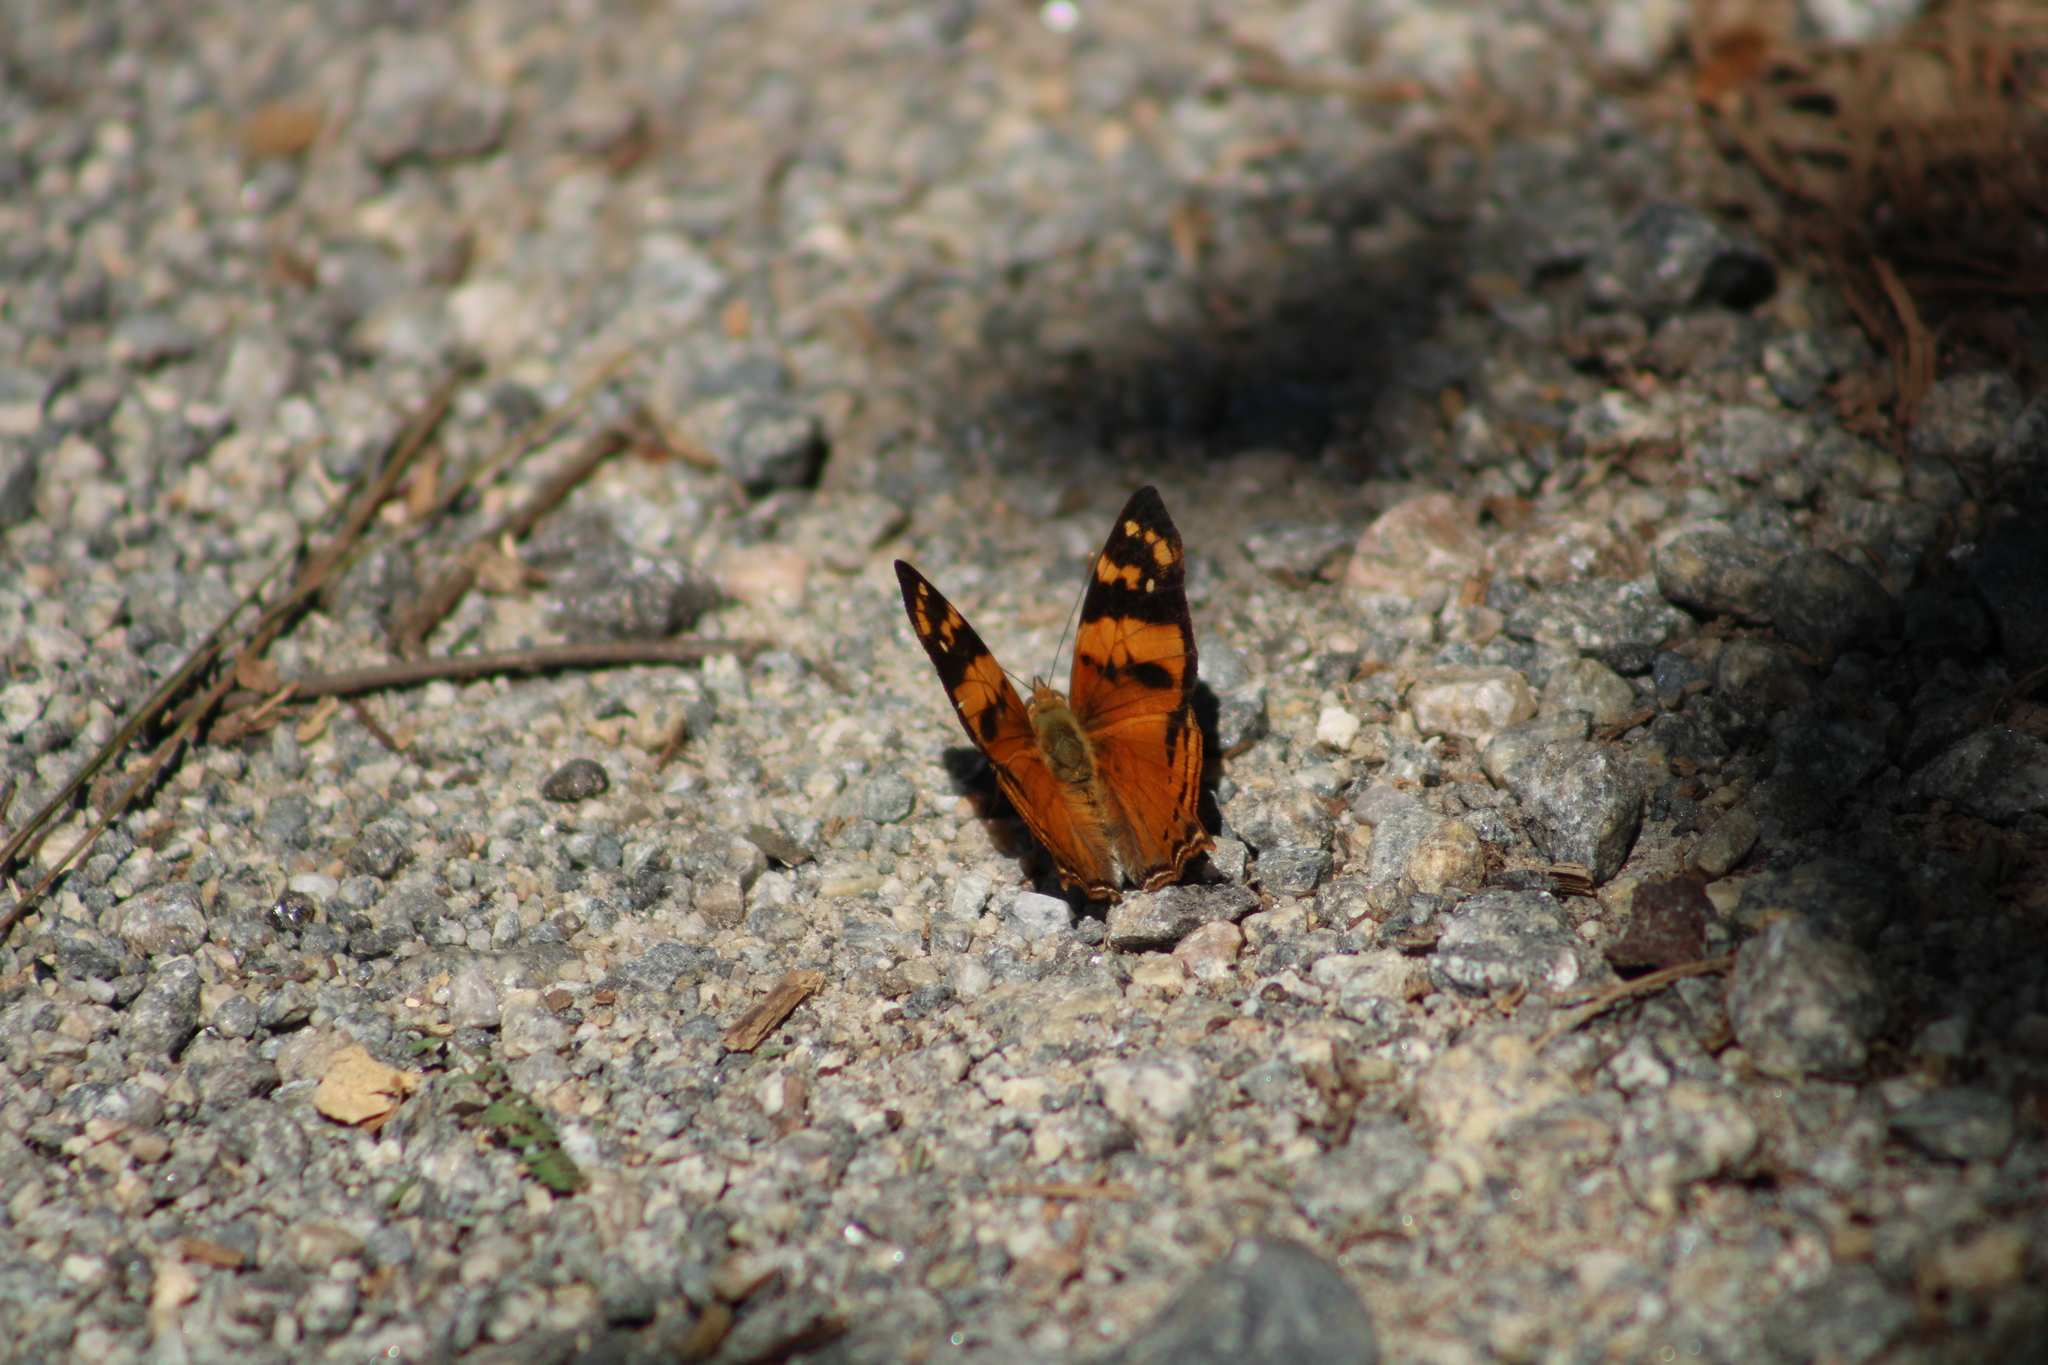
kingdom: Animalia
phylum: Arthropoda
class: Insecta
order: Lepidoptera
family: Nymphalidae
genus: Hypanartia
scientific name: Hypanartia lethe
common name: Orange mapwing
